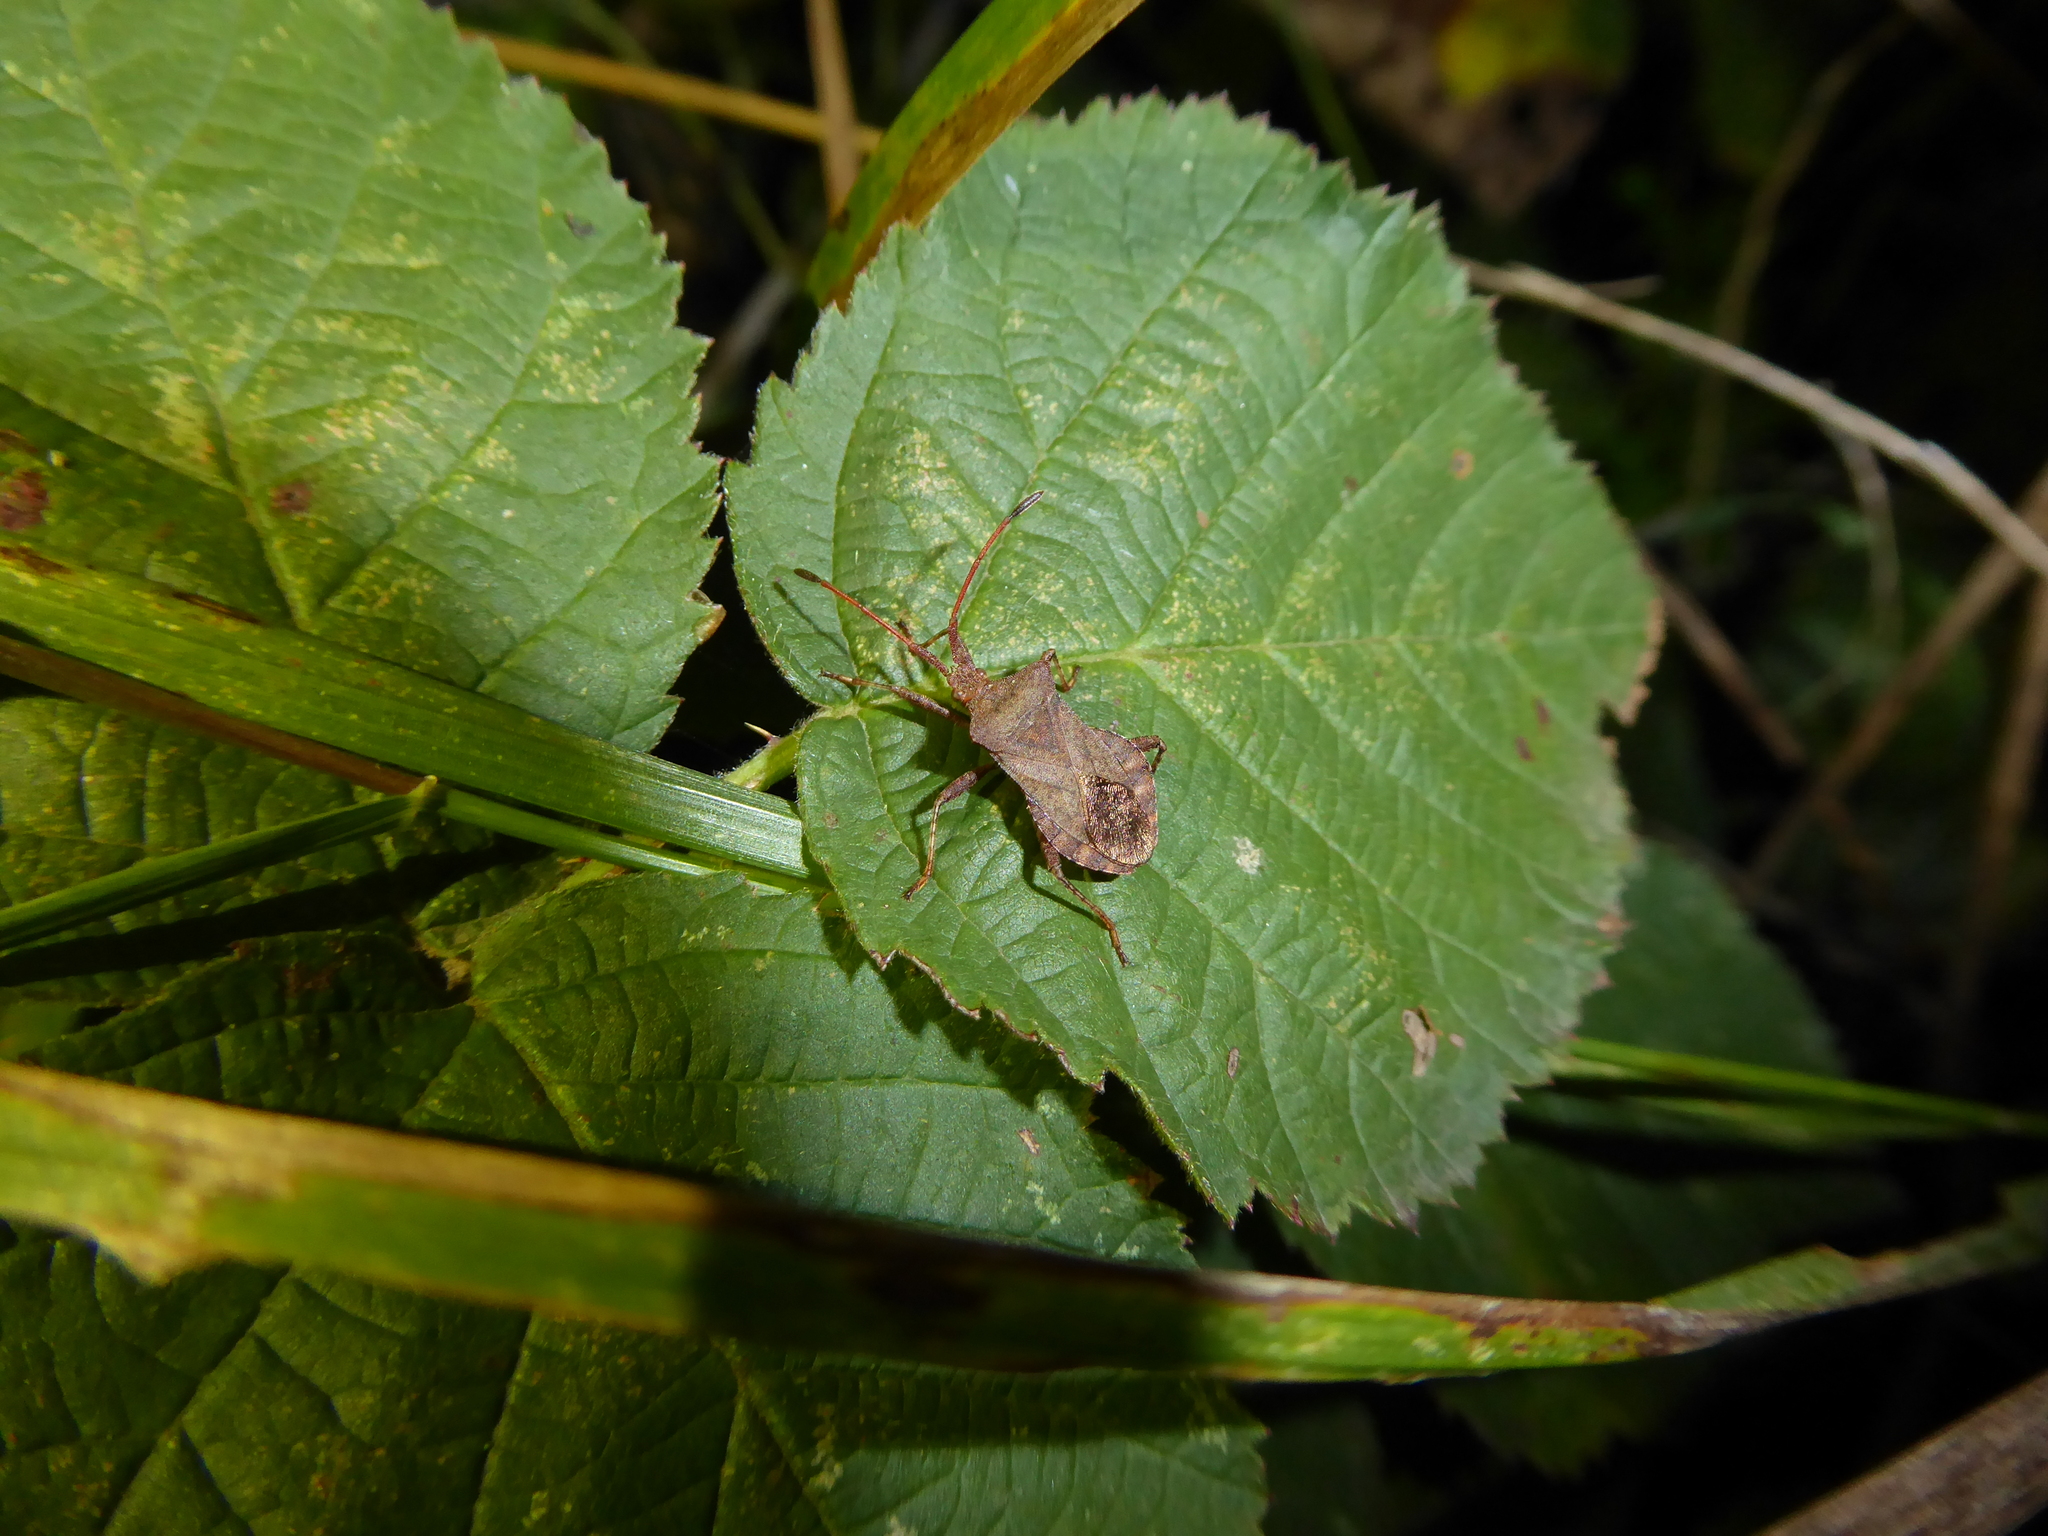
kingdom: Animalia
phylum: Arthropoda
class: Insecta
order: Hemiptera
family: Coreidae
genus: Coreus
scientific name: Coreus marginatus
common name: Dock bug
